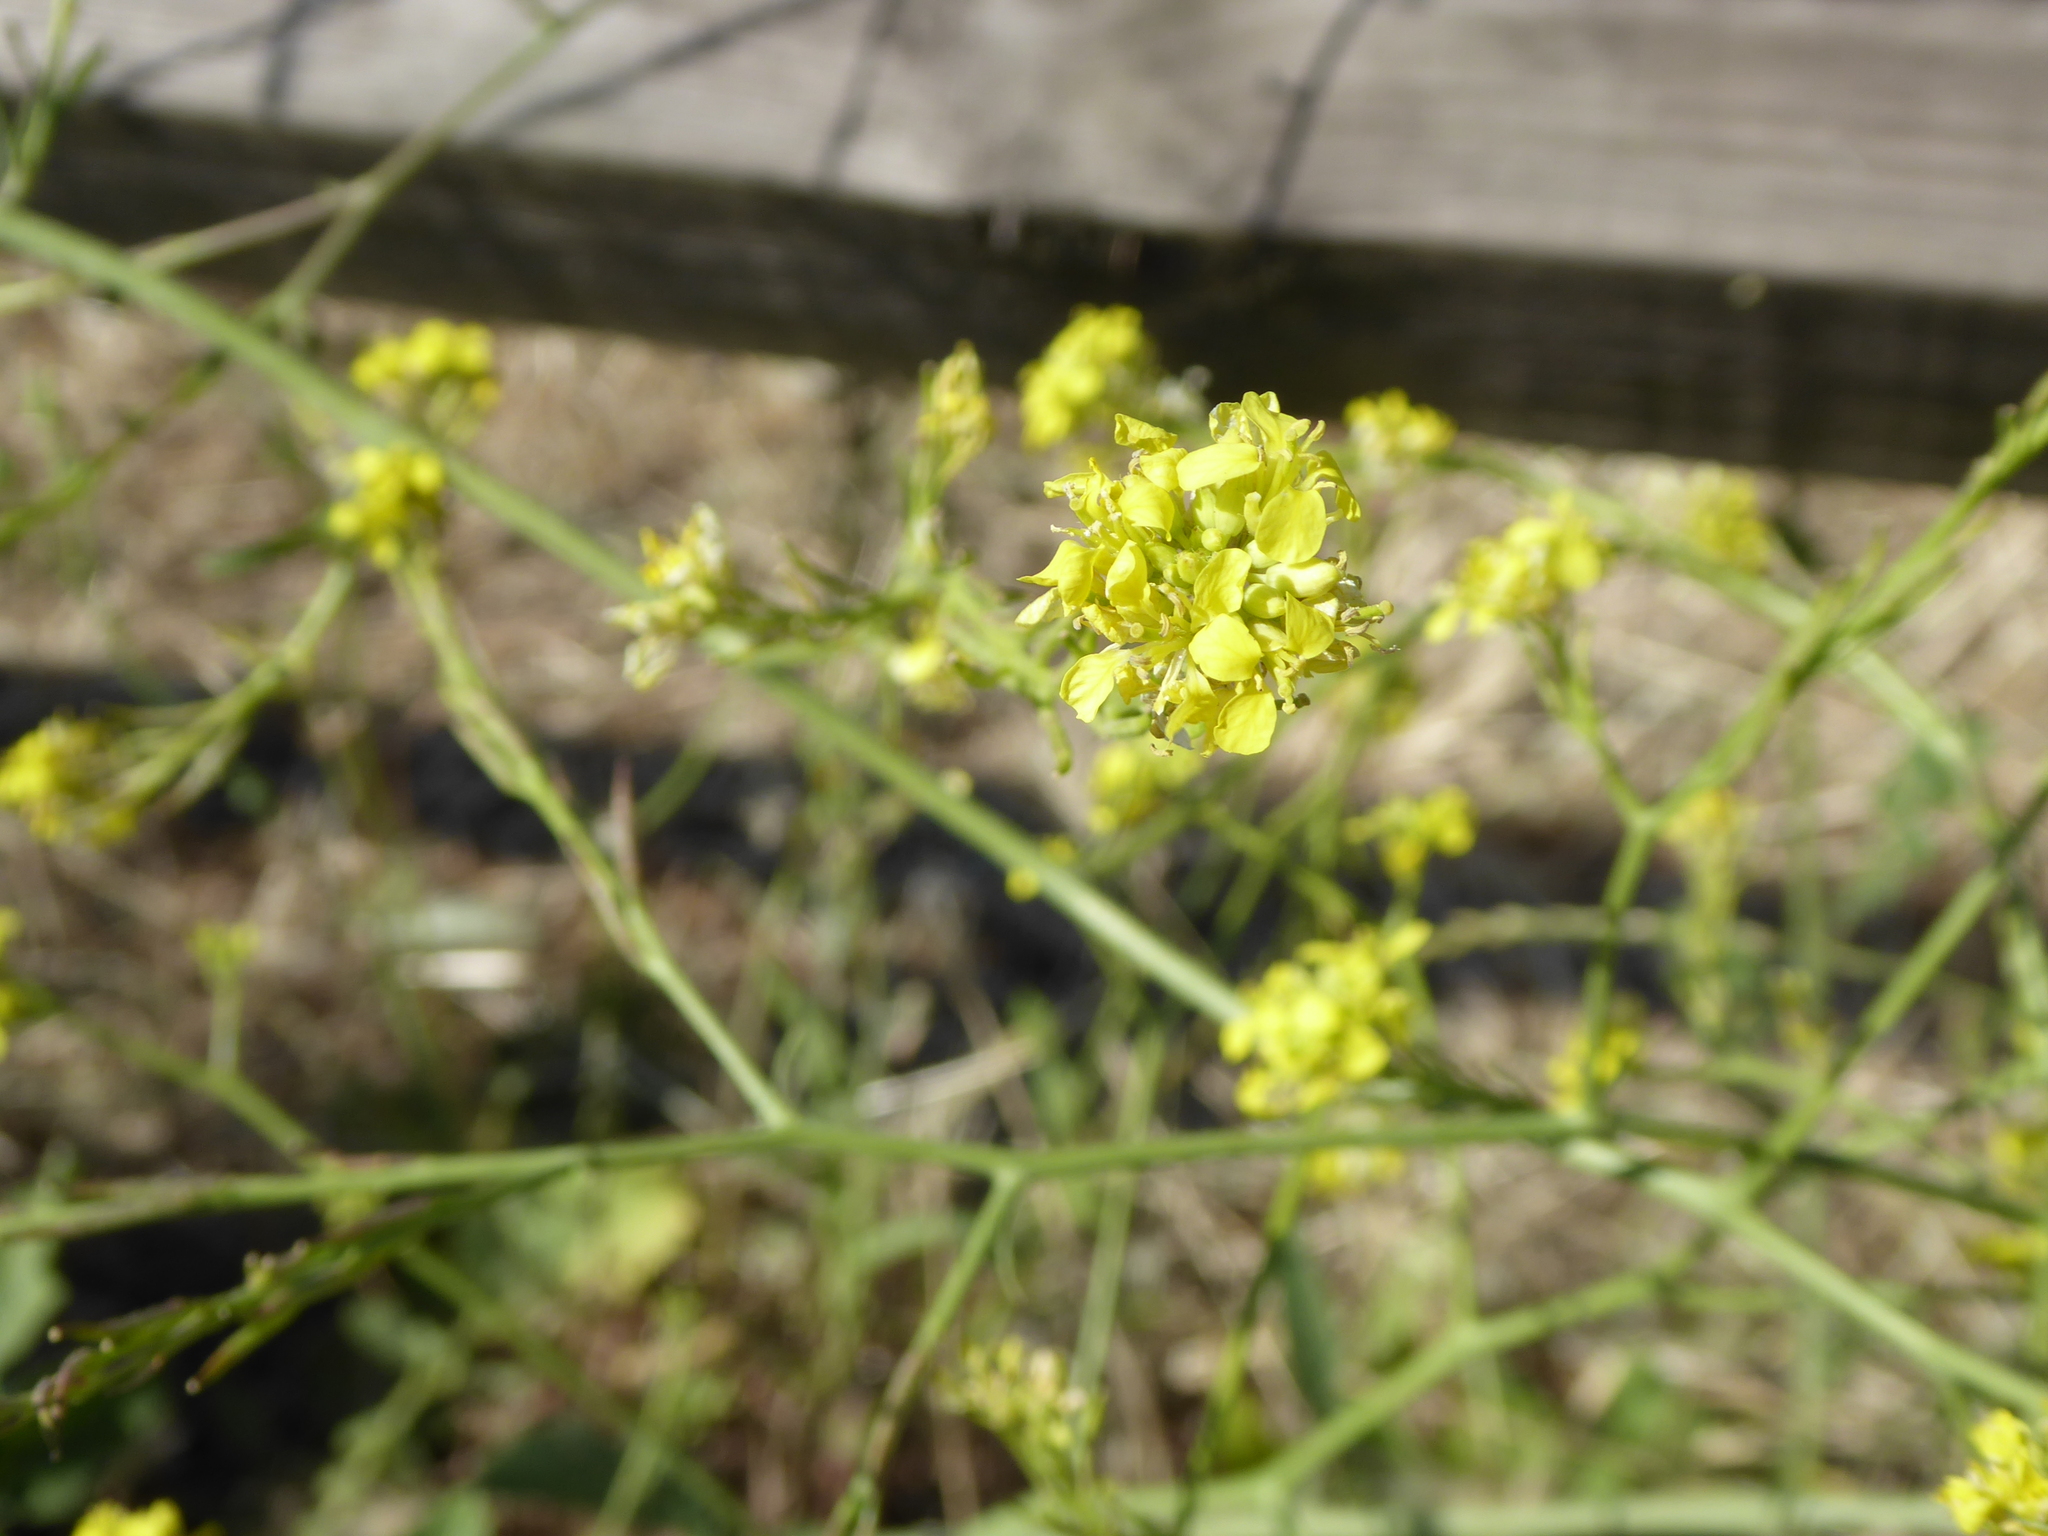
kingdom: Plantae
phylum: Tracheophyta
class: Magnoliopsida
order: Brassicales
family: Brassicaceae
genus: Hirschfeldia
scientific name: Hirschfeldia incana
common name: Hoary mustard
